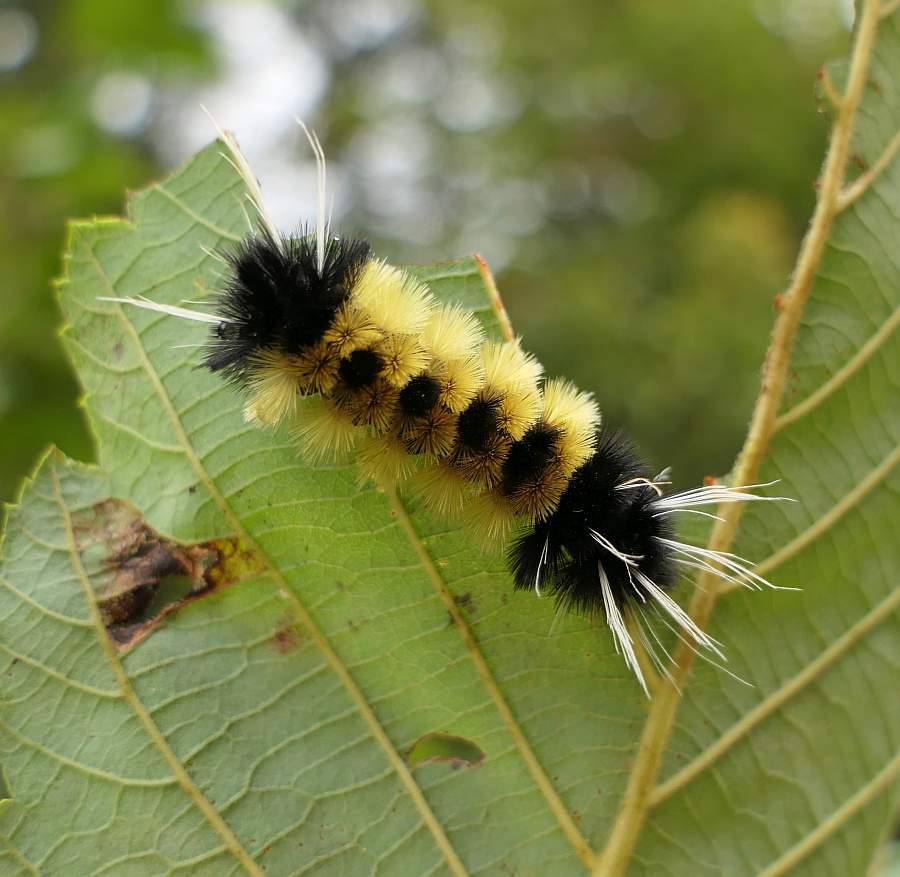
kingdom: Animalia
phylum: Arthropoda
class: Insecta
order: Lepidoptera
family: Erebidae
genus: Lophocampa
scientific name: Lophocampa maculata
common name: Spotted tussock moth
